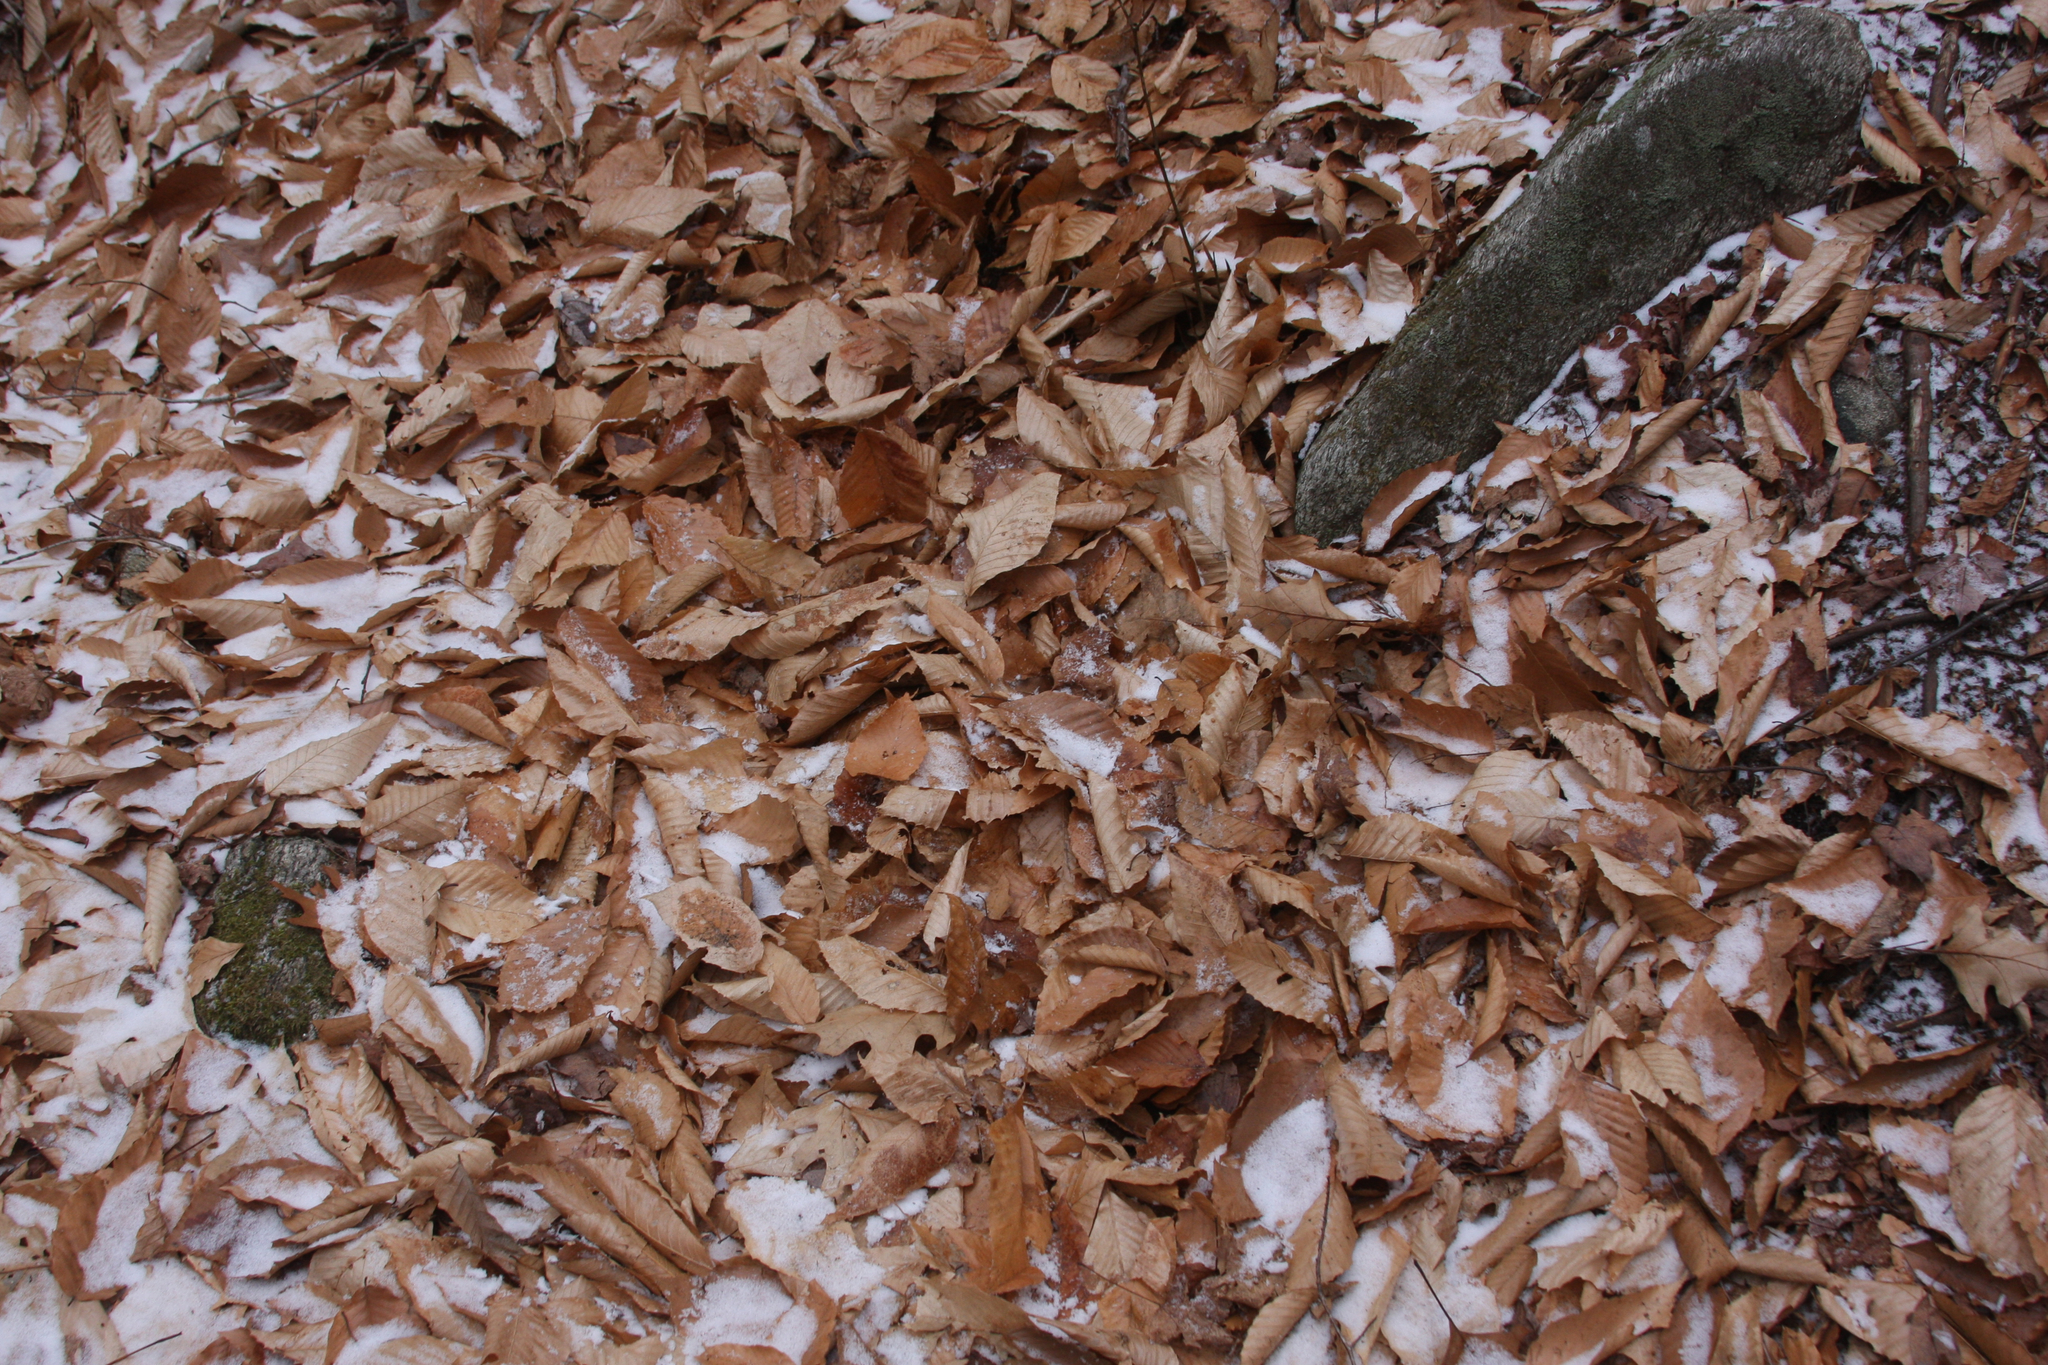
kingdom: Plantae
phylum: Tracheophyta
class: Magnoliopsida
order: Fagales
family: Fagaceae
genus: Fagus
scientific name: Fagus grandifolia
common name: American beech
